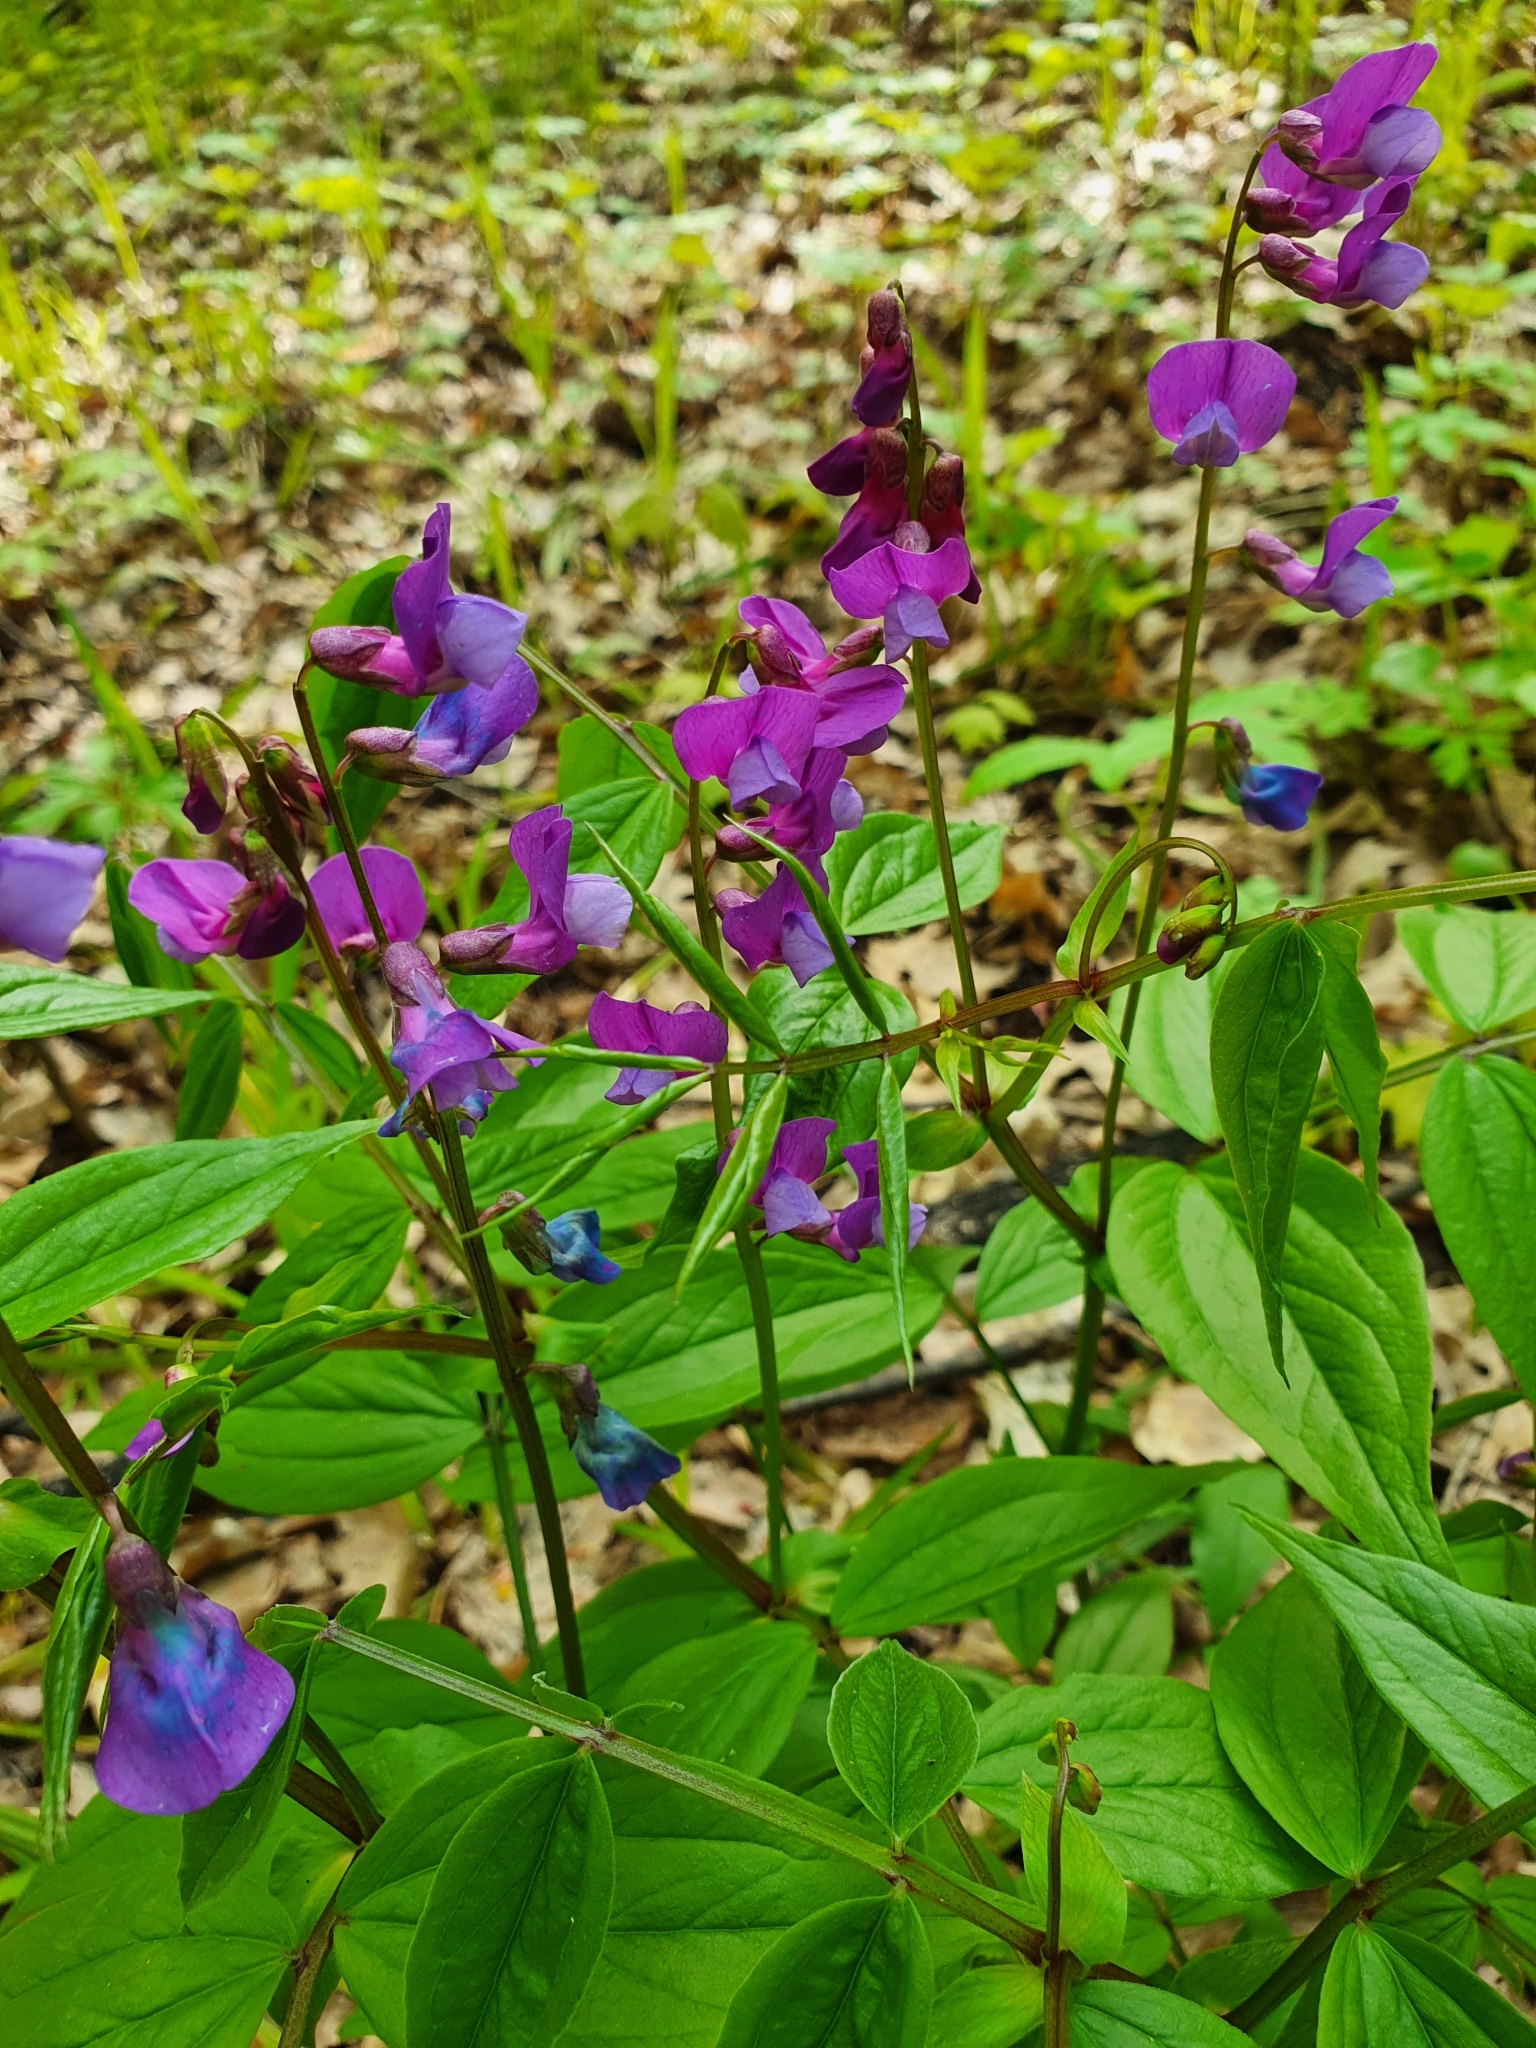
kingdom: Plantae
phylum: Tracheophyta
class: Magnoliopsida
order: Fabales
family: Fabaceae
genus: Lathyrus
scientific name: Lathyrus vernus
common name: Spring pea
